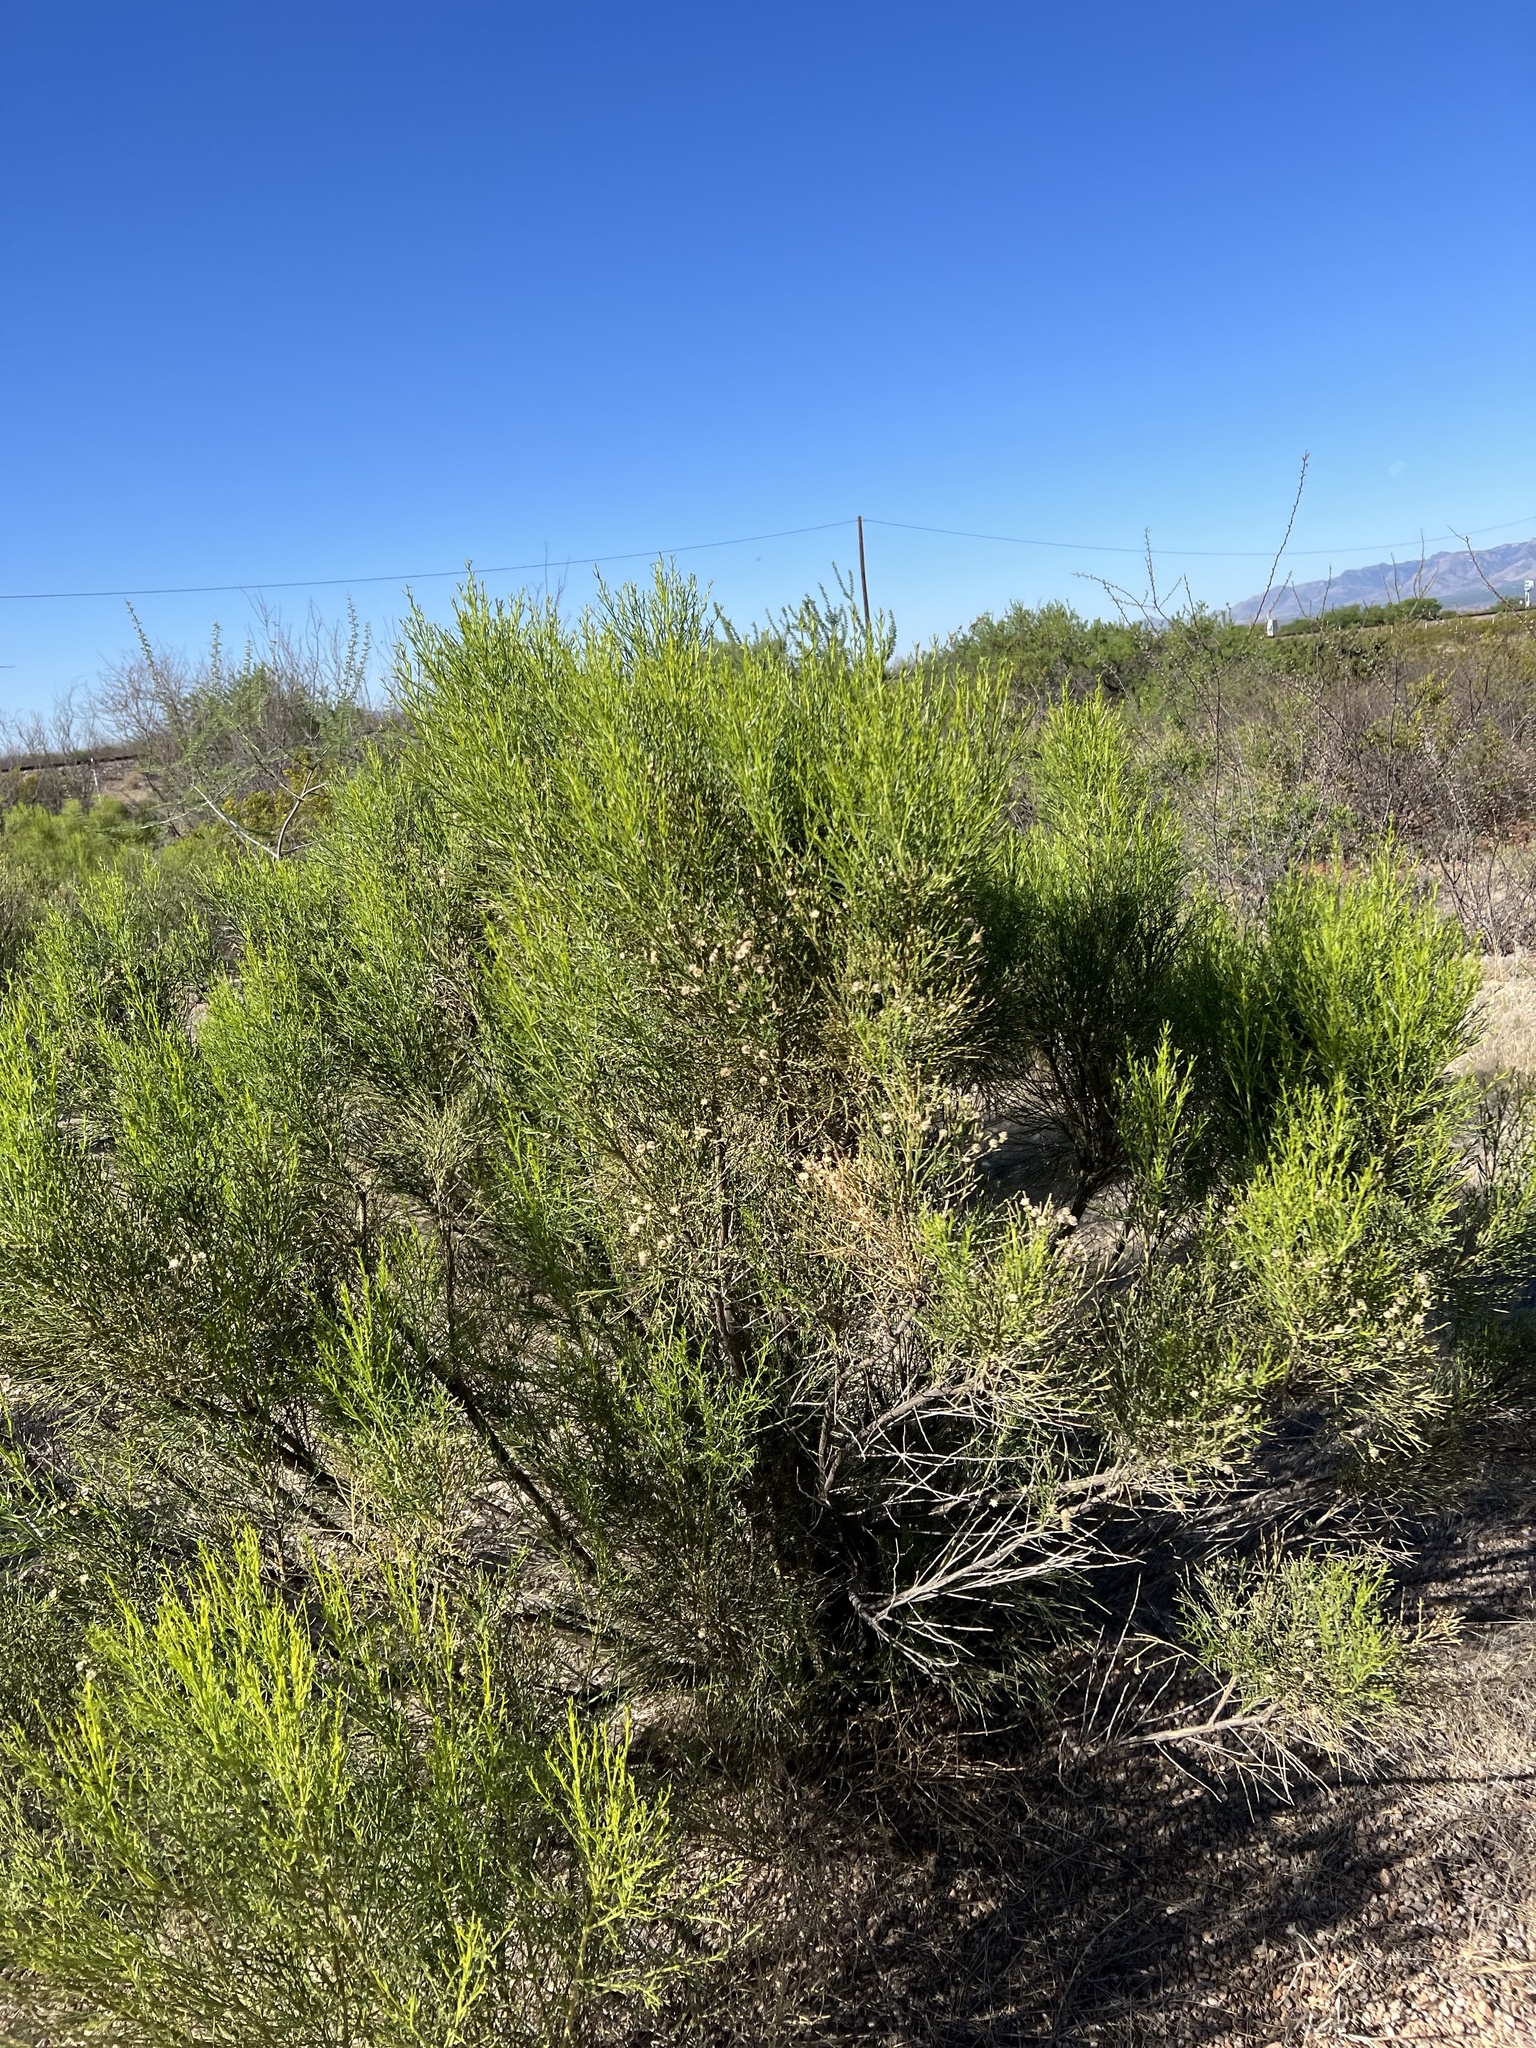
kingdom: Plantae
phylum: Tracheophyta
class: Magnoliopsida
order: Asterales
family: Asteraceae
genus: Baccharis
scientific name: Baccharis sarothroides
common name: Desert-broom
